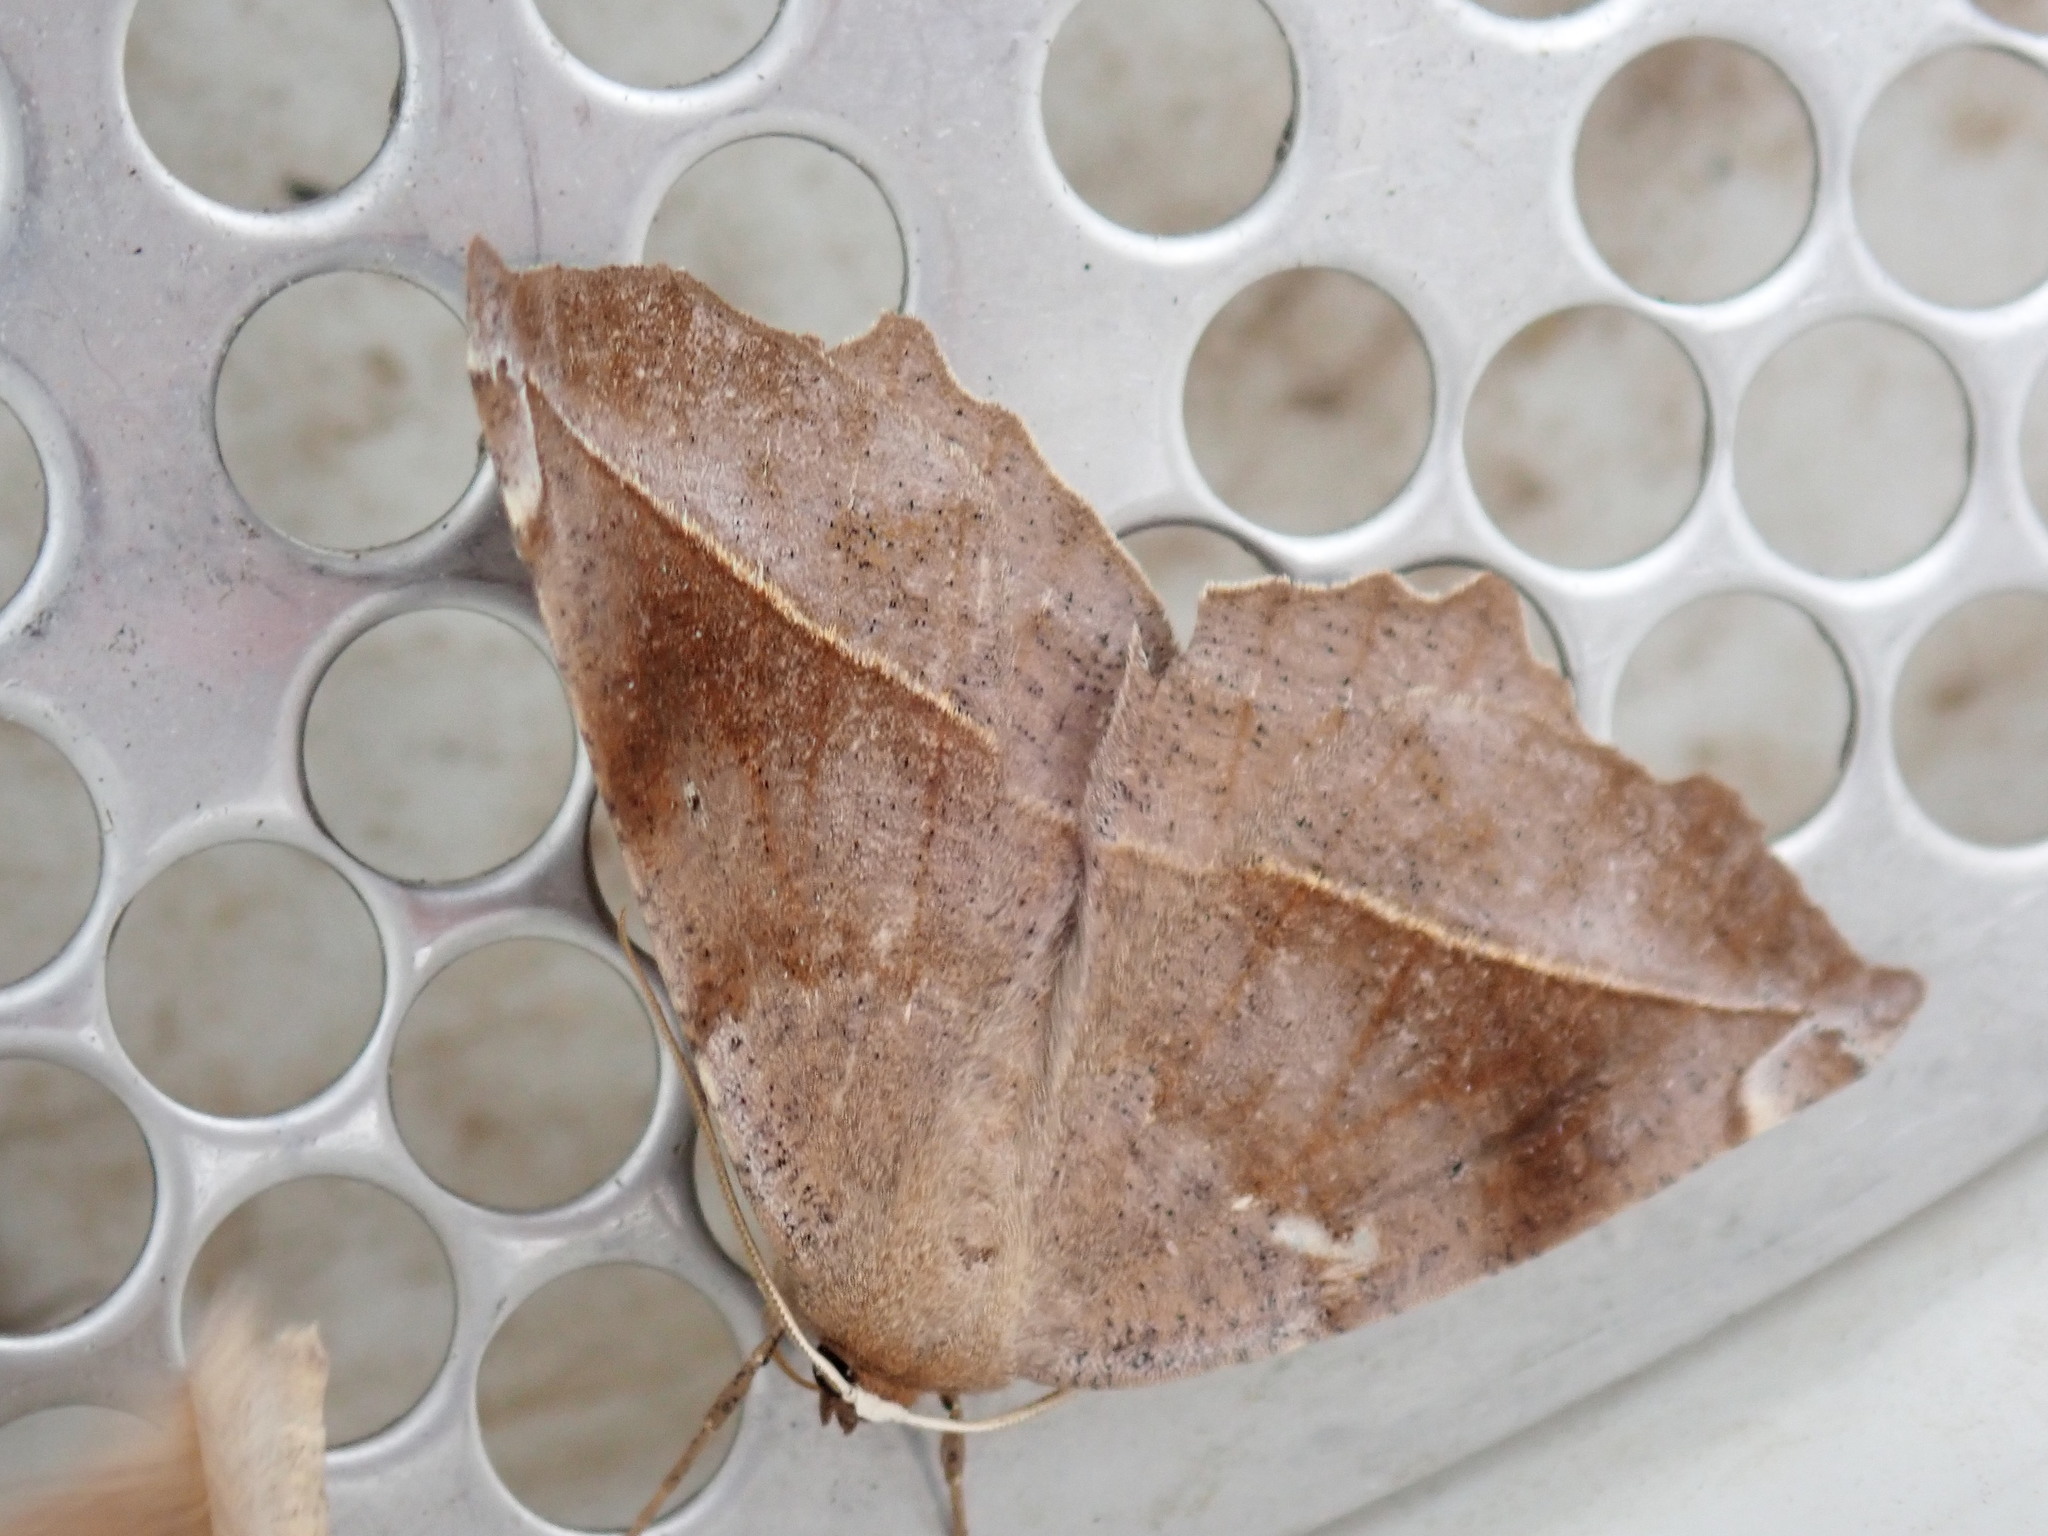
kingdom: Animalia
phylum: Arthropoda
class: Insecta
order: Lepidoptera
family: Geometridae
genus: Eutrapela
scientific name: Eutrapela clemataria
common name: Curved-toothed geometer
